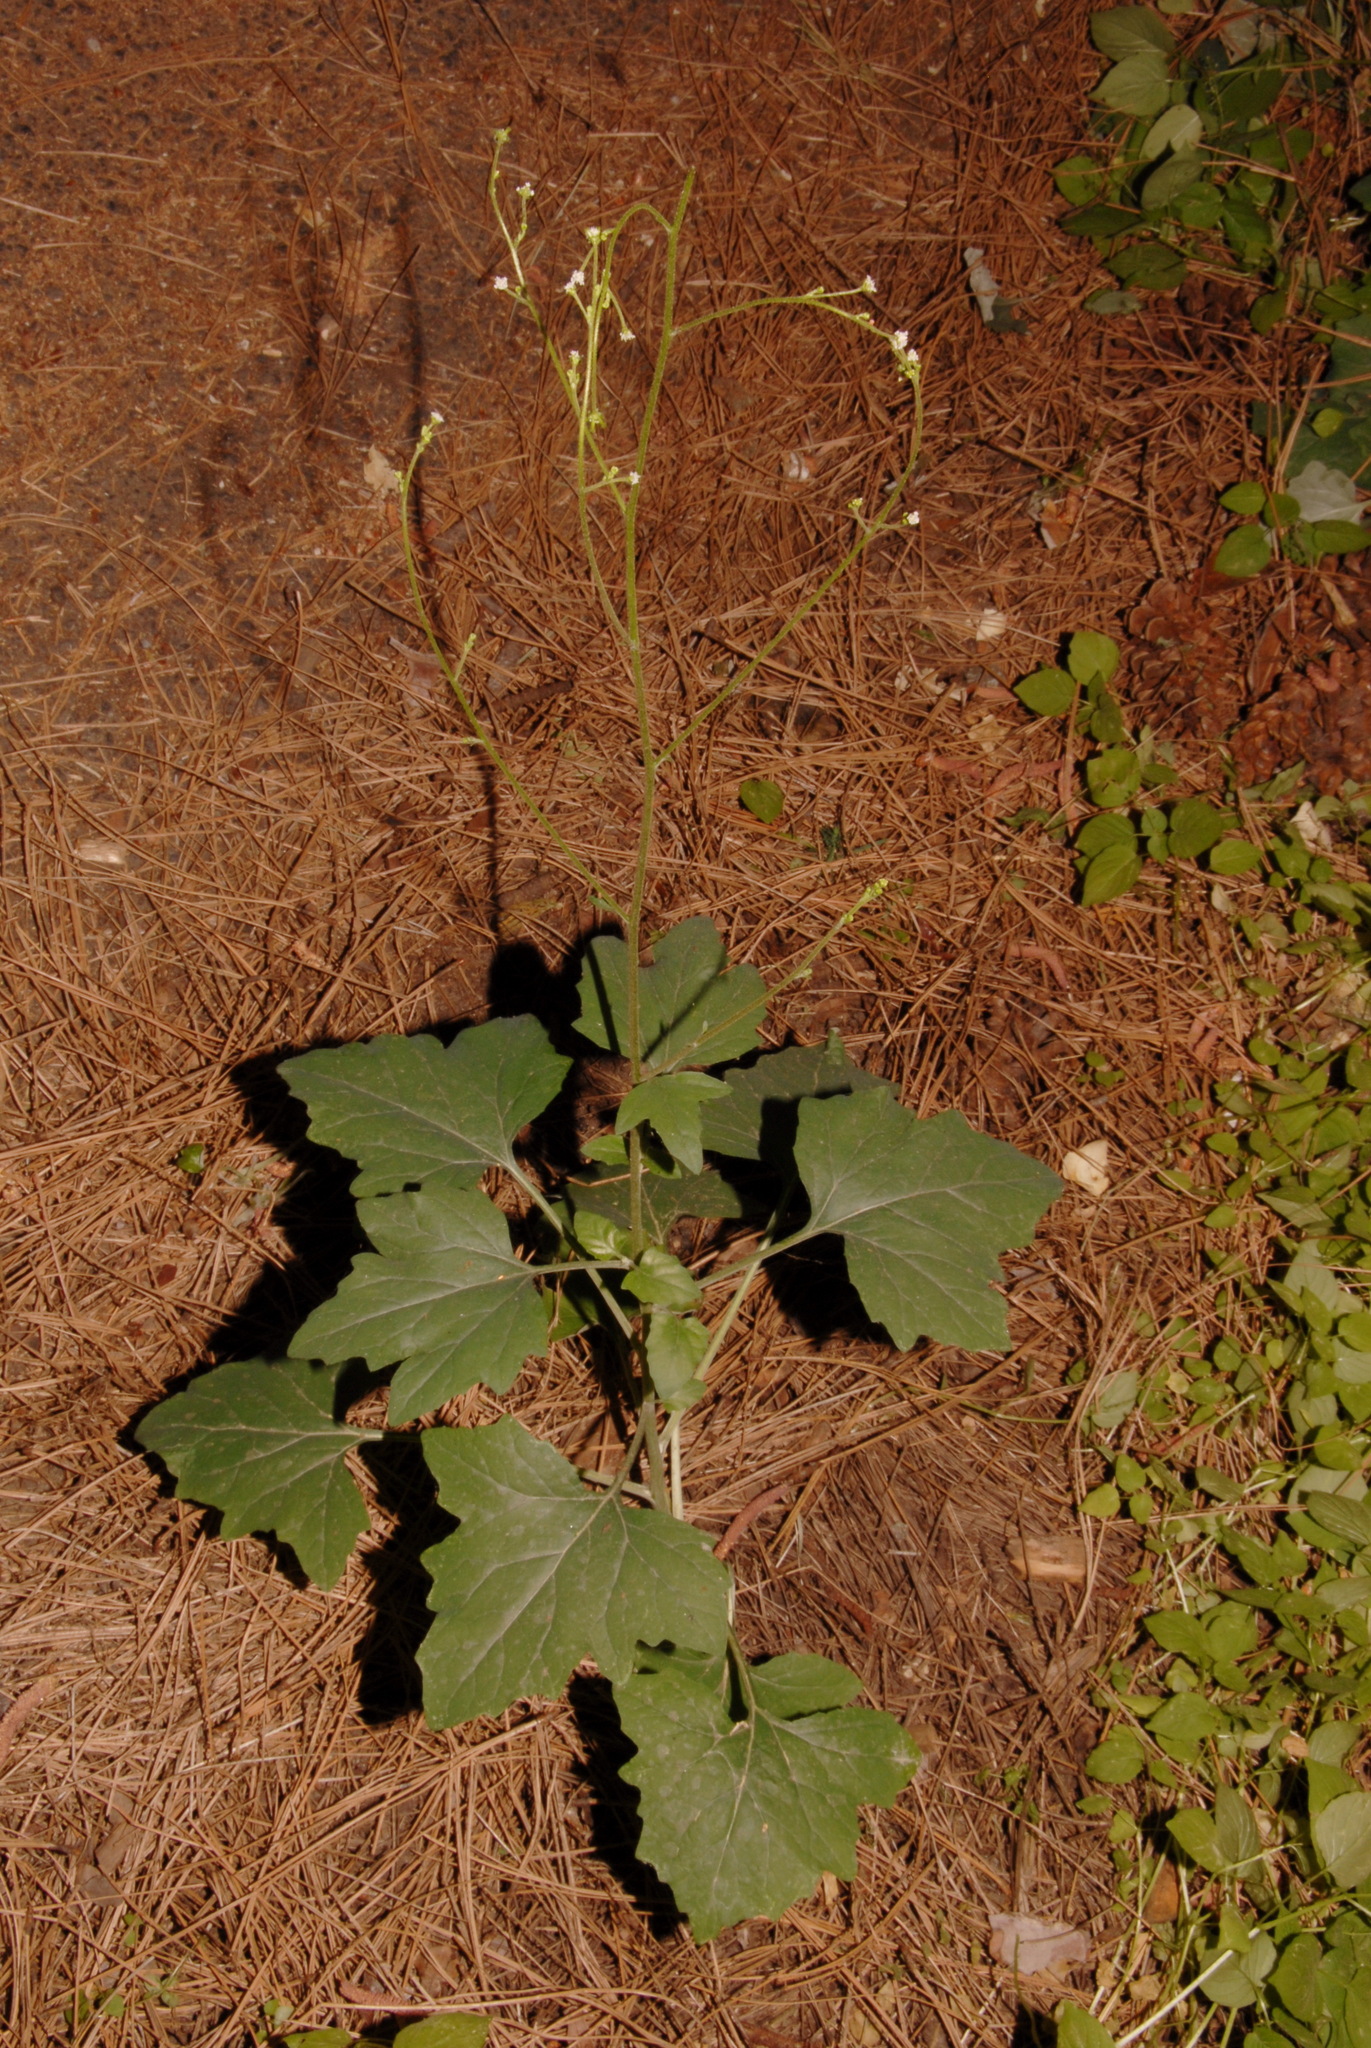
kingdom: Plantae
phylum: Tracheophyta
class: Magnoliopsida
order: Asterales
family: Asteraceae
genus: Adenocaulon
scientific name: Adenocaulon bicolor
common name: Trailplant
